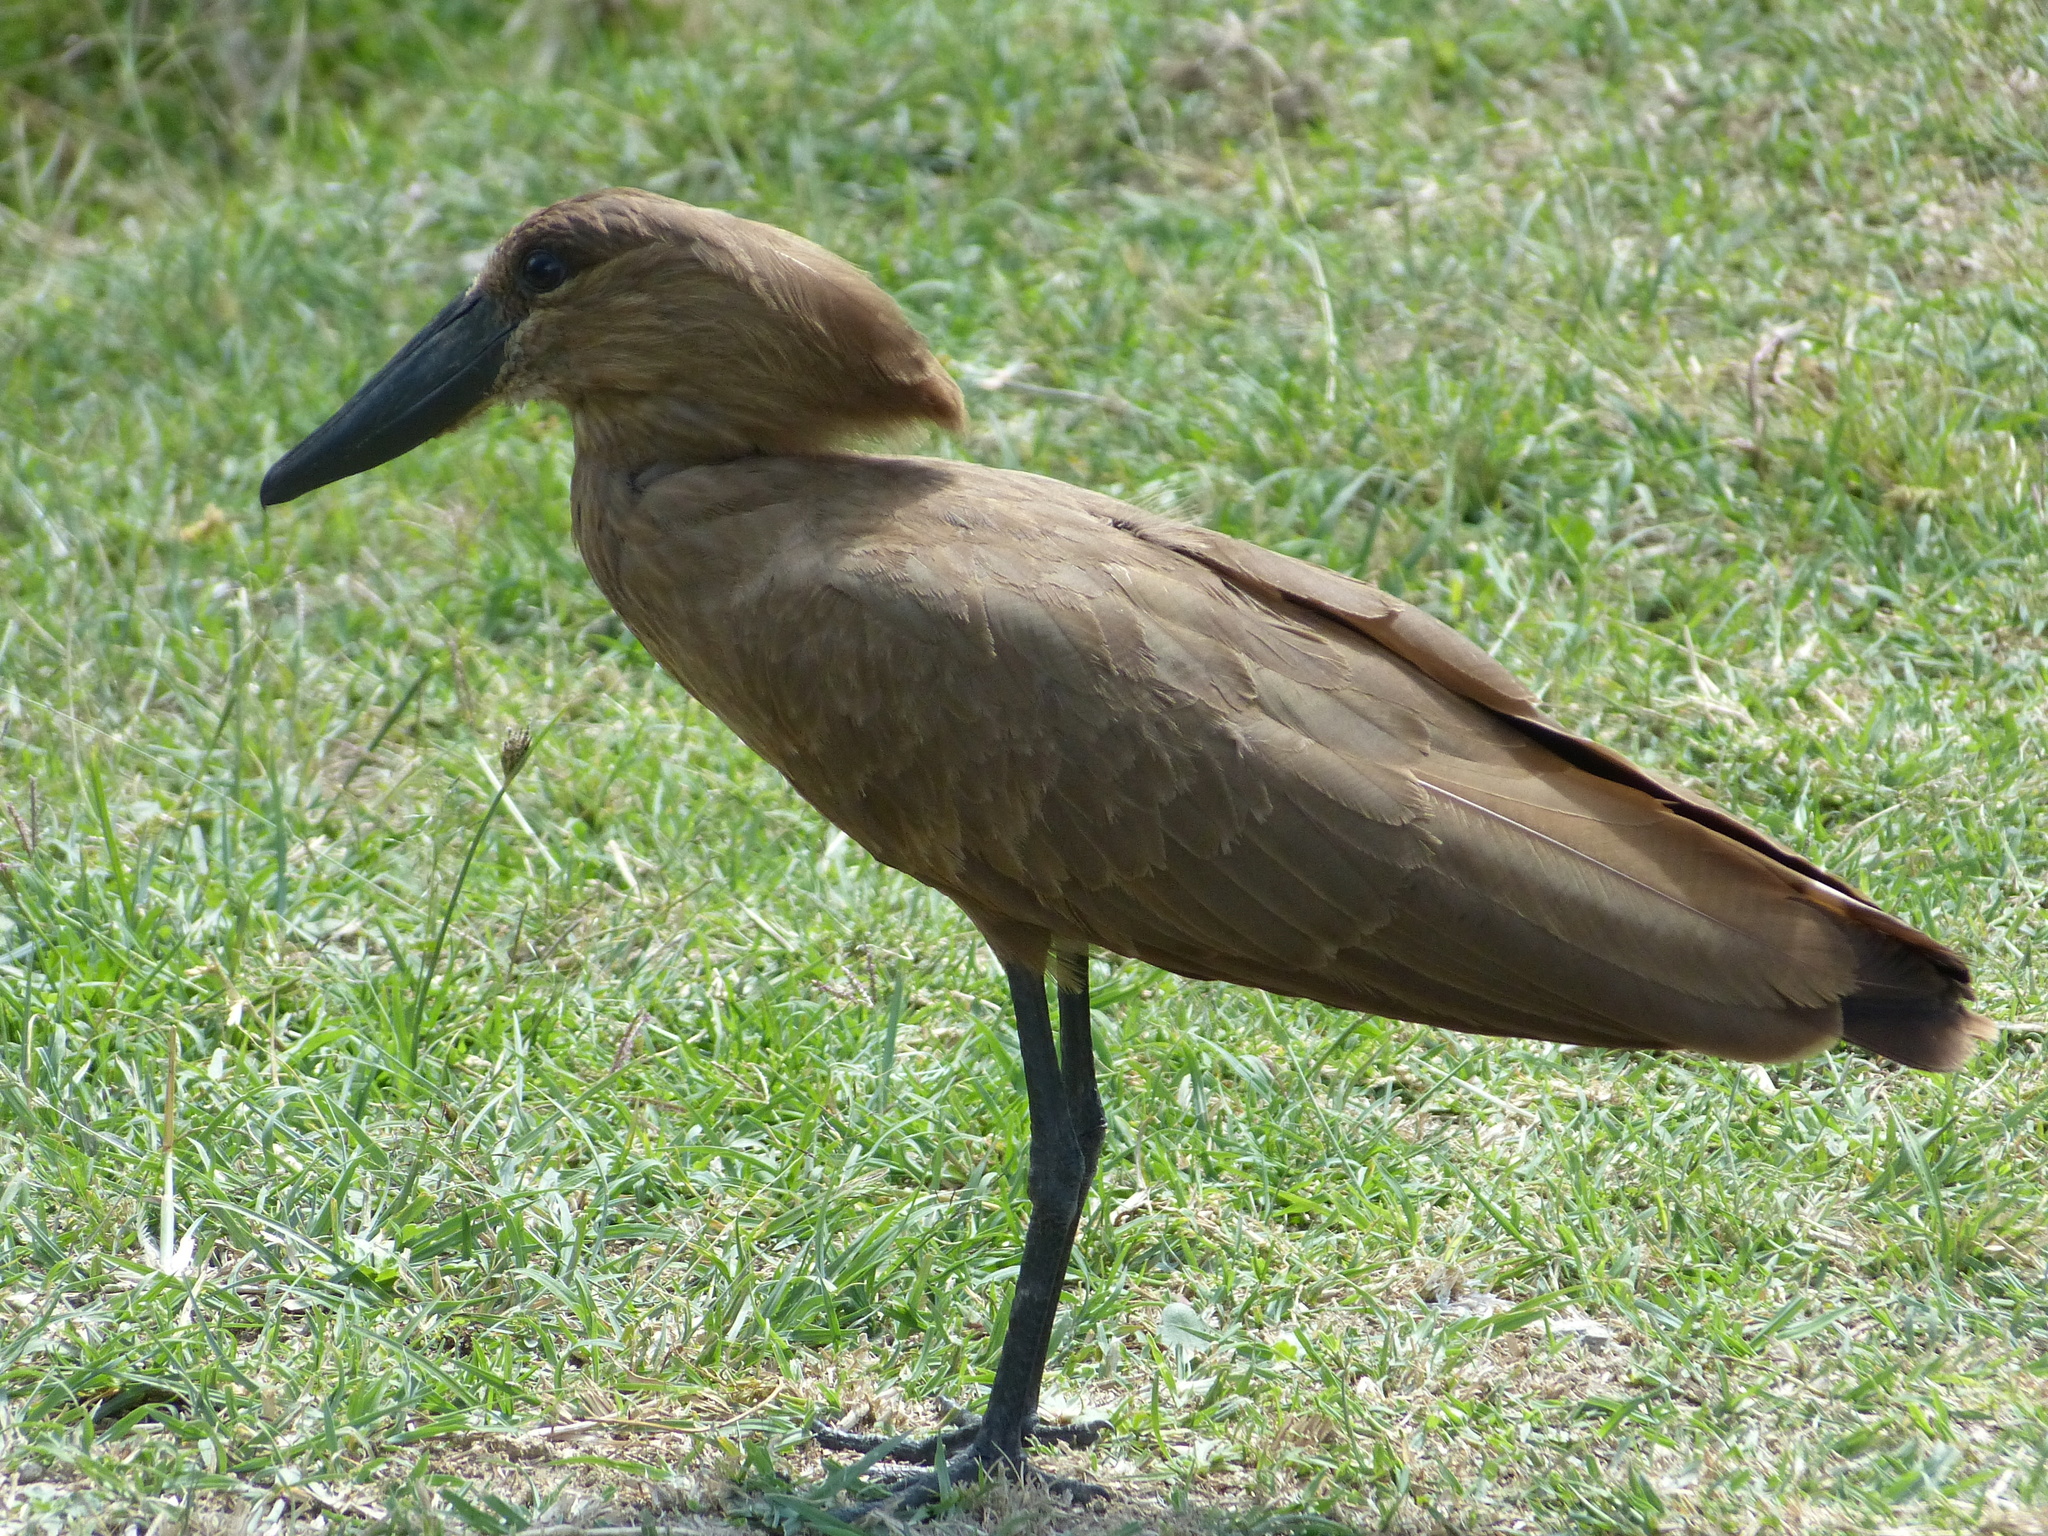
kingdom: Animalia
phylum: Chordata
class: Aves
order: Pelecaniformes
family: Scopidae
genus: Scopus
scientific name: Scopus umbretta
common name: Hamerkop
